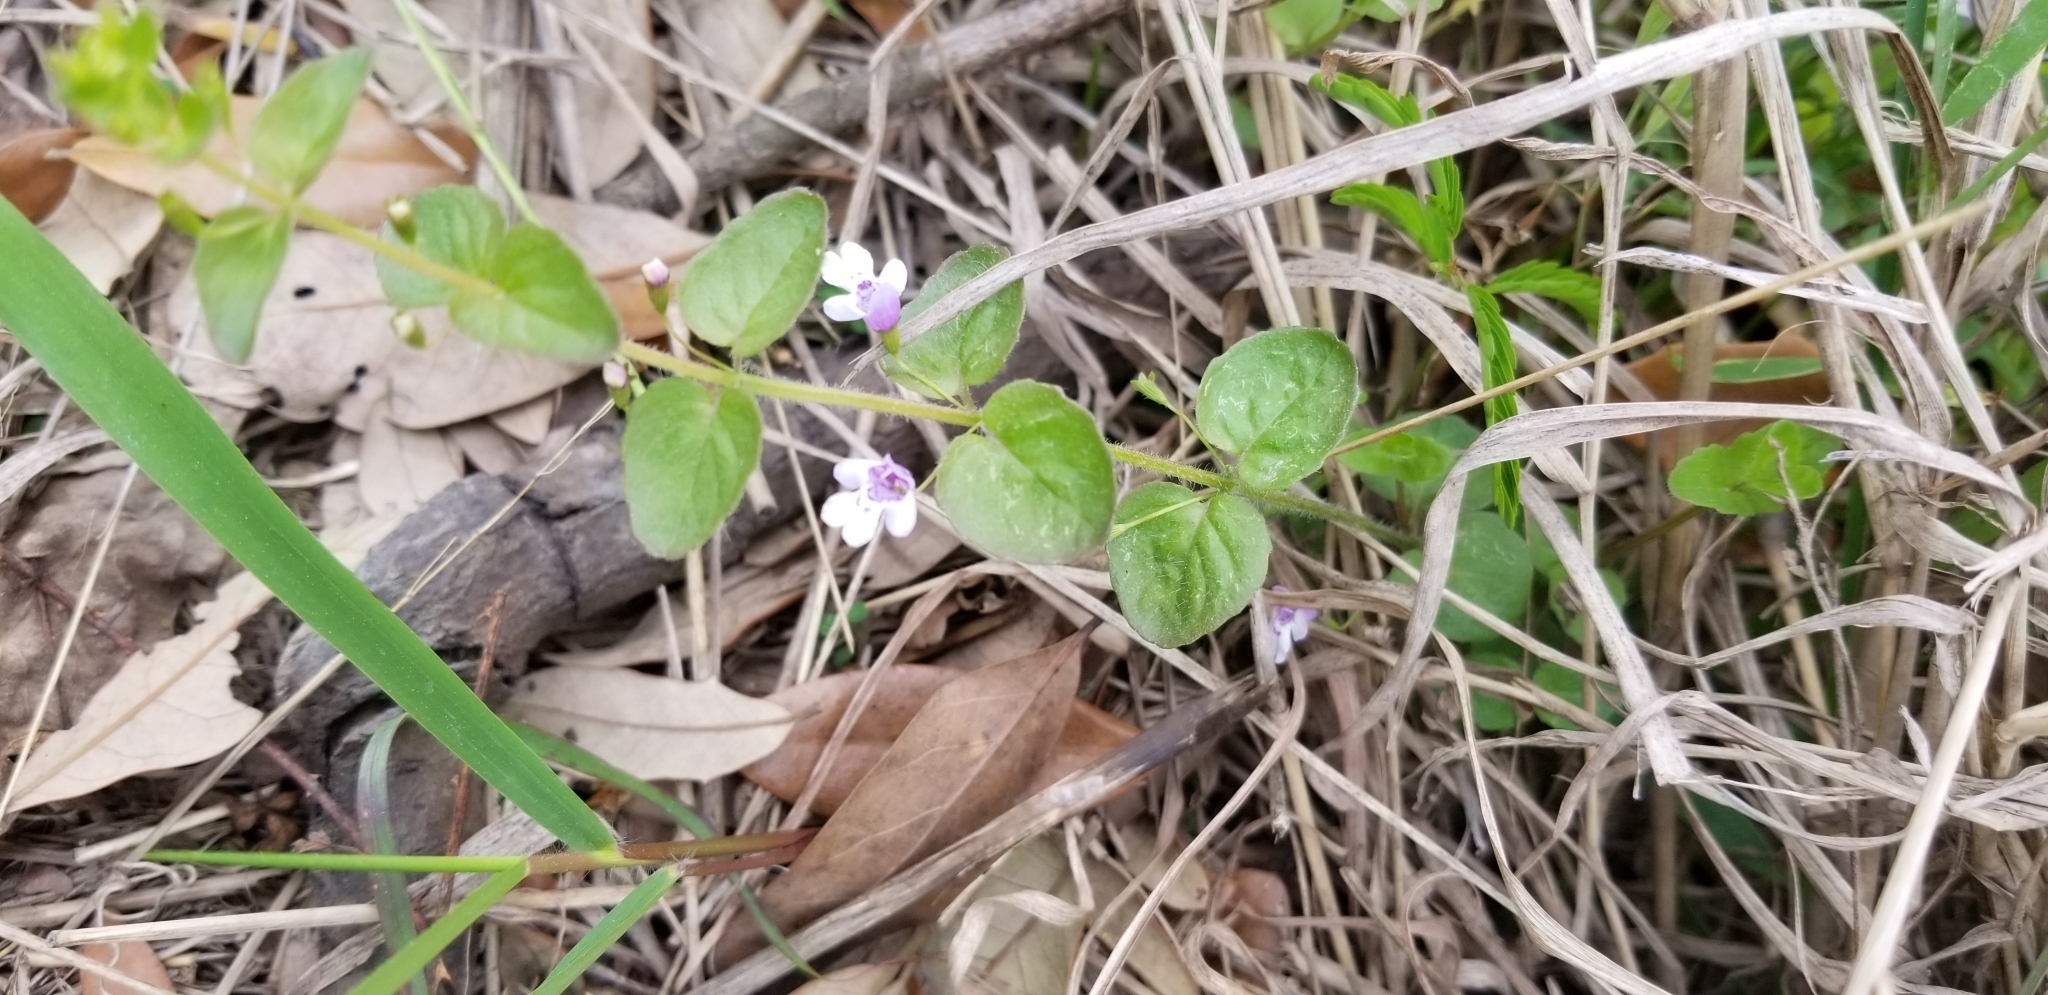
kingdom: Plantae
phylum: Tracheophyta
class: Magnoliopsida
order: Lamiales
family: Lamiaceae
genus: Clinopodium
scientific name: Clinopodium brownei
